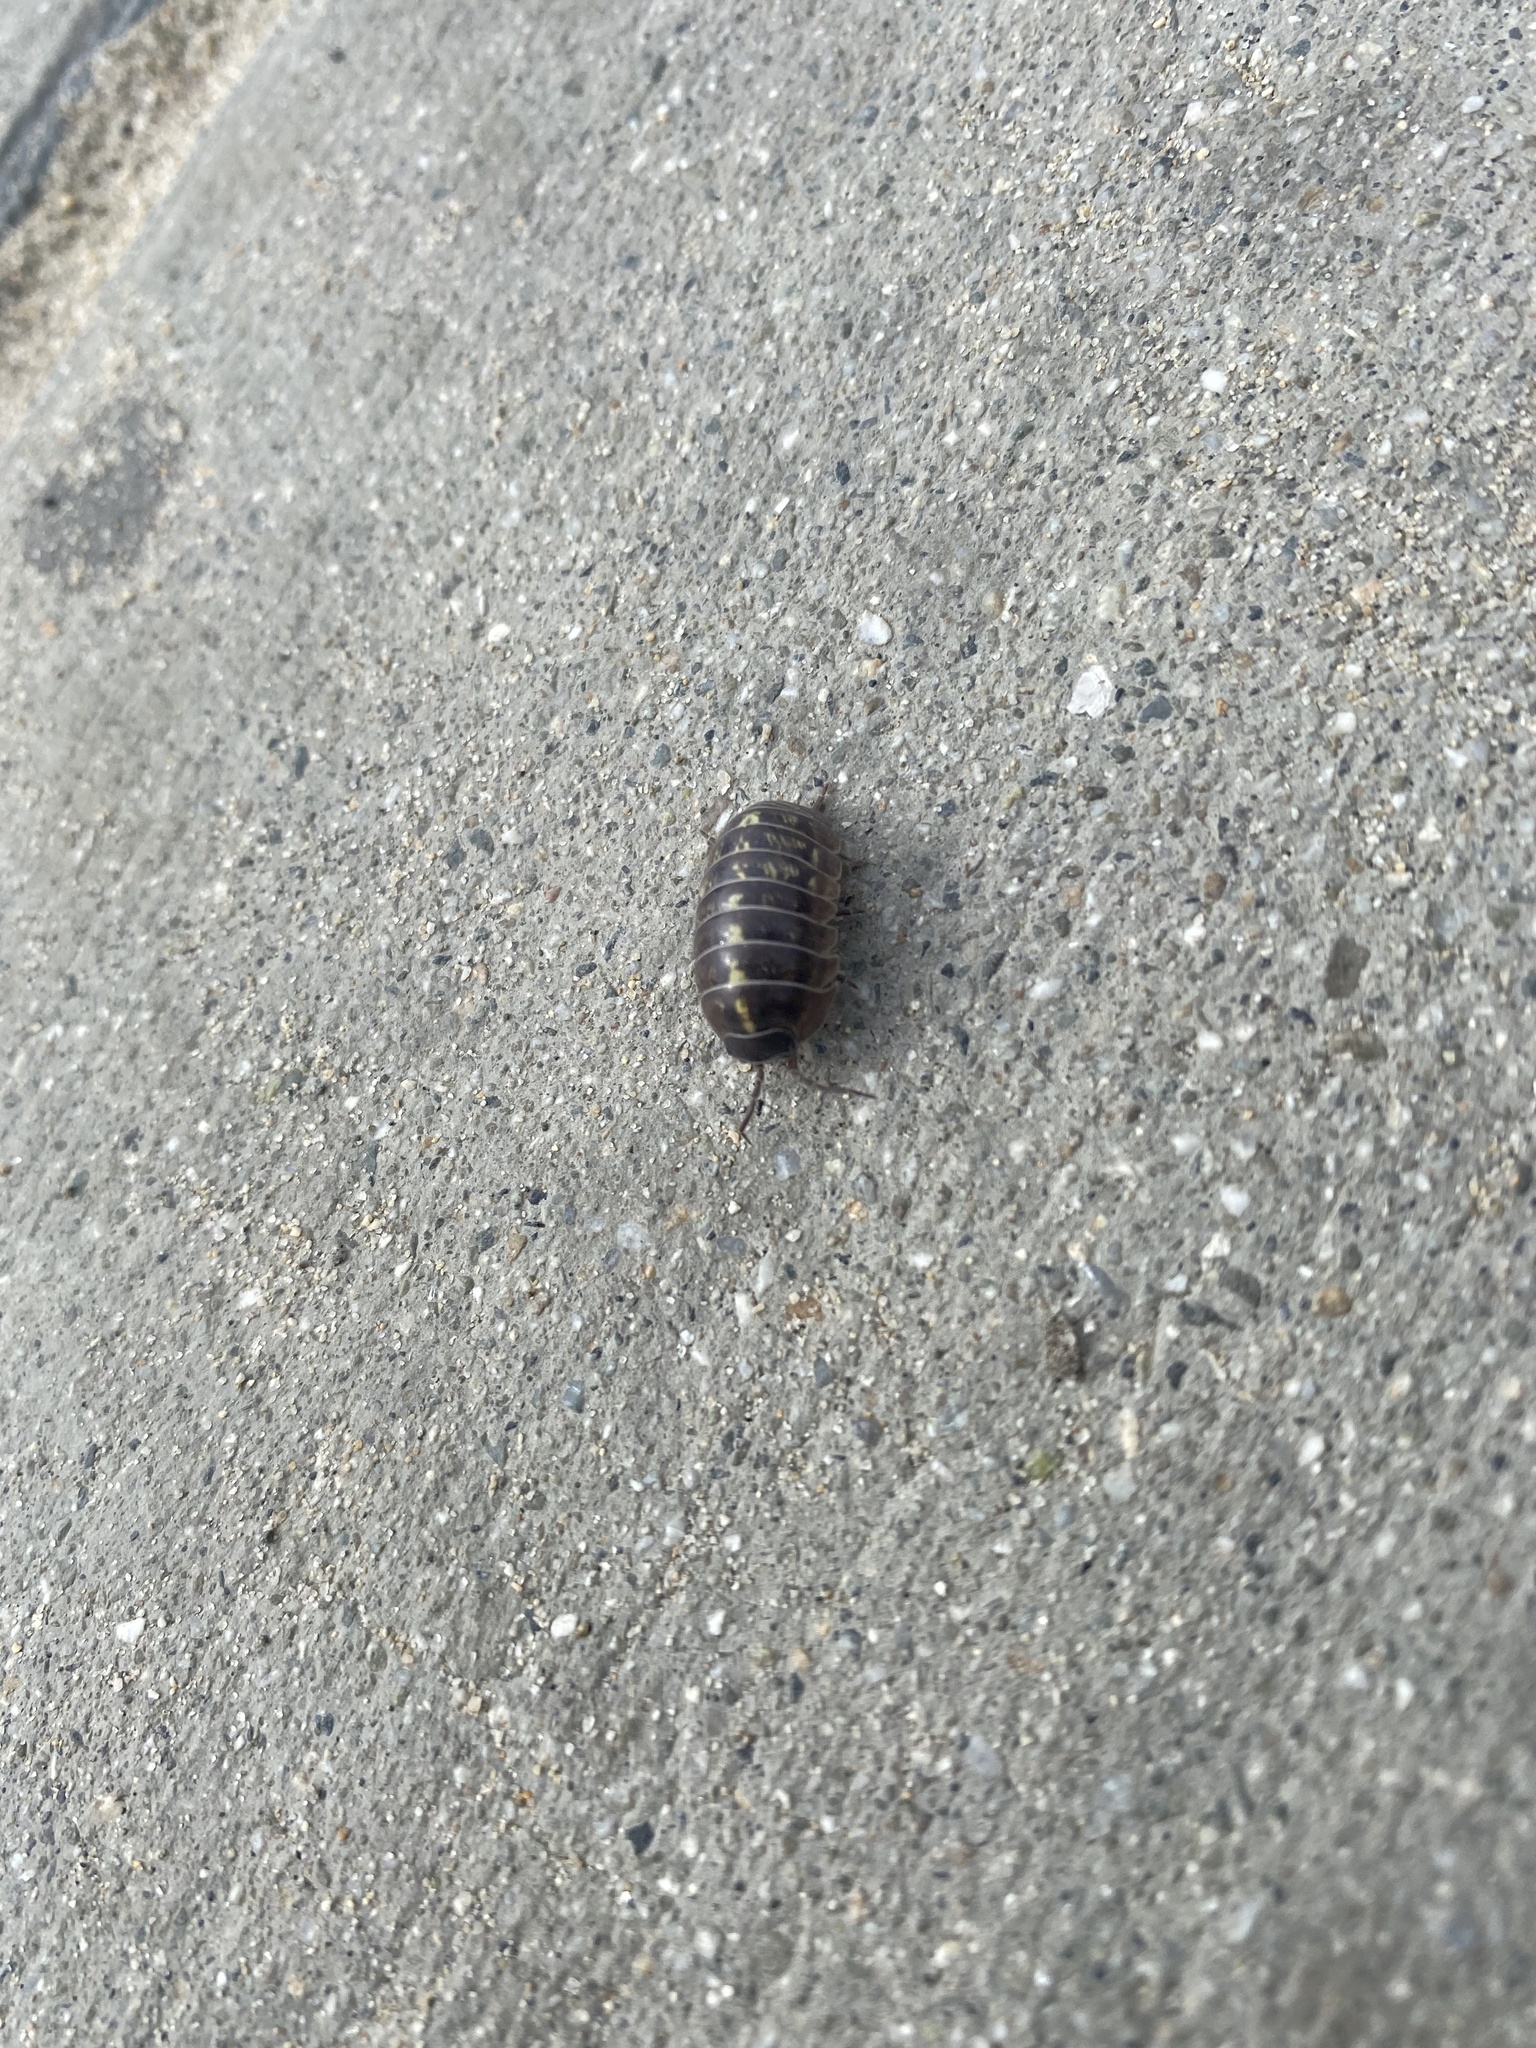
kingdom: Animalia
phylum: Arthropoda
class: Malacostraca
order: Isopoda
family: Armadillidiidae
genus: Armadillidium
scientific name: Armadillidium vulgare
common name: Common pill woodlouse
